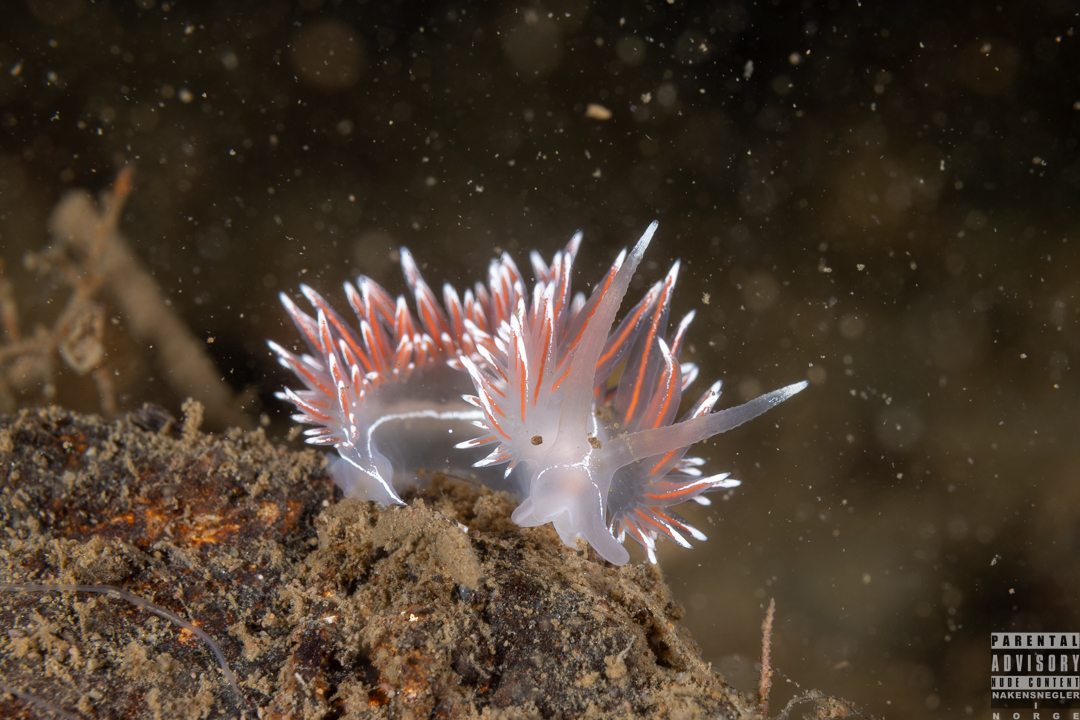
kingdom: Animalia
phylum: Mollusca
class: Gastropoda
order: Nudibranchia
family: Coryphellidae
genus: Coryphella
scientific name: Coryphella lineata
